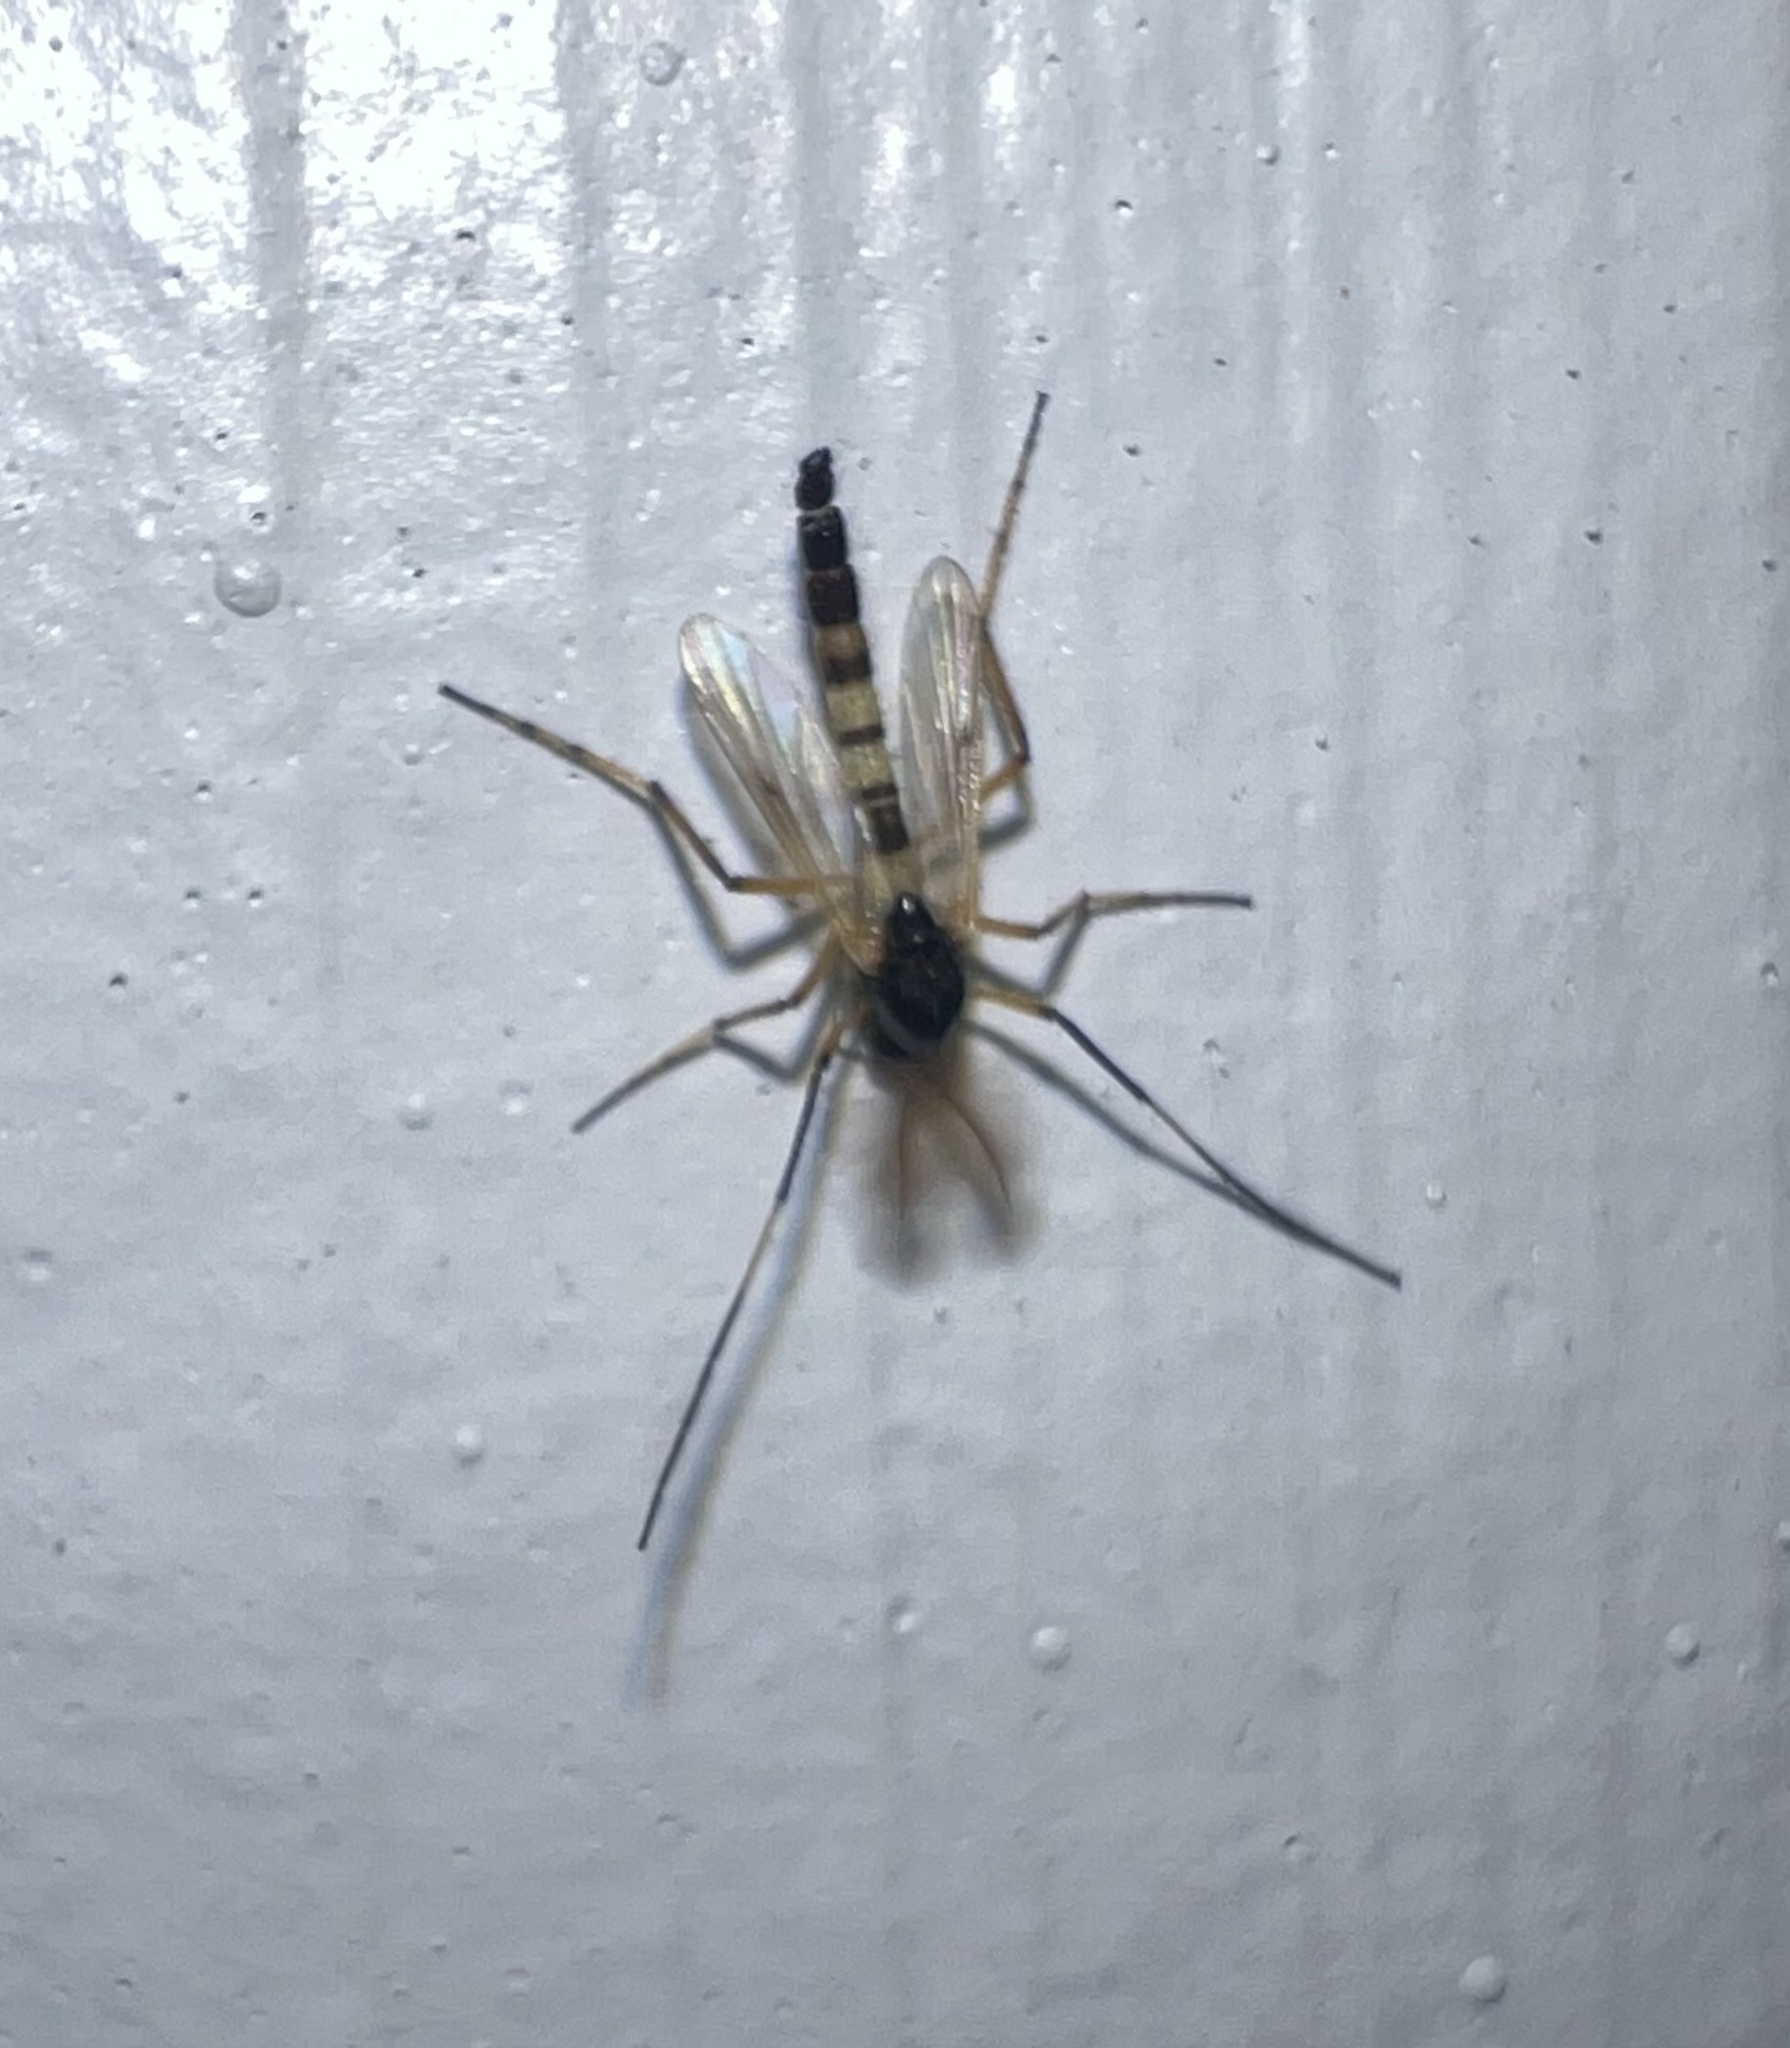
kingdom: Animalia
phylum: Arthropoda
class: Insecta
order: Diptera
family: Chironomidae
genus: Demeijerea
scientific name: Demeijerea brachialis
